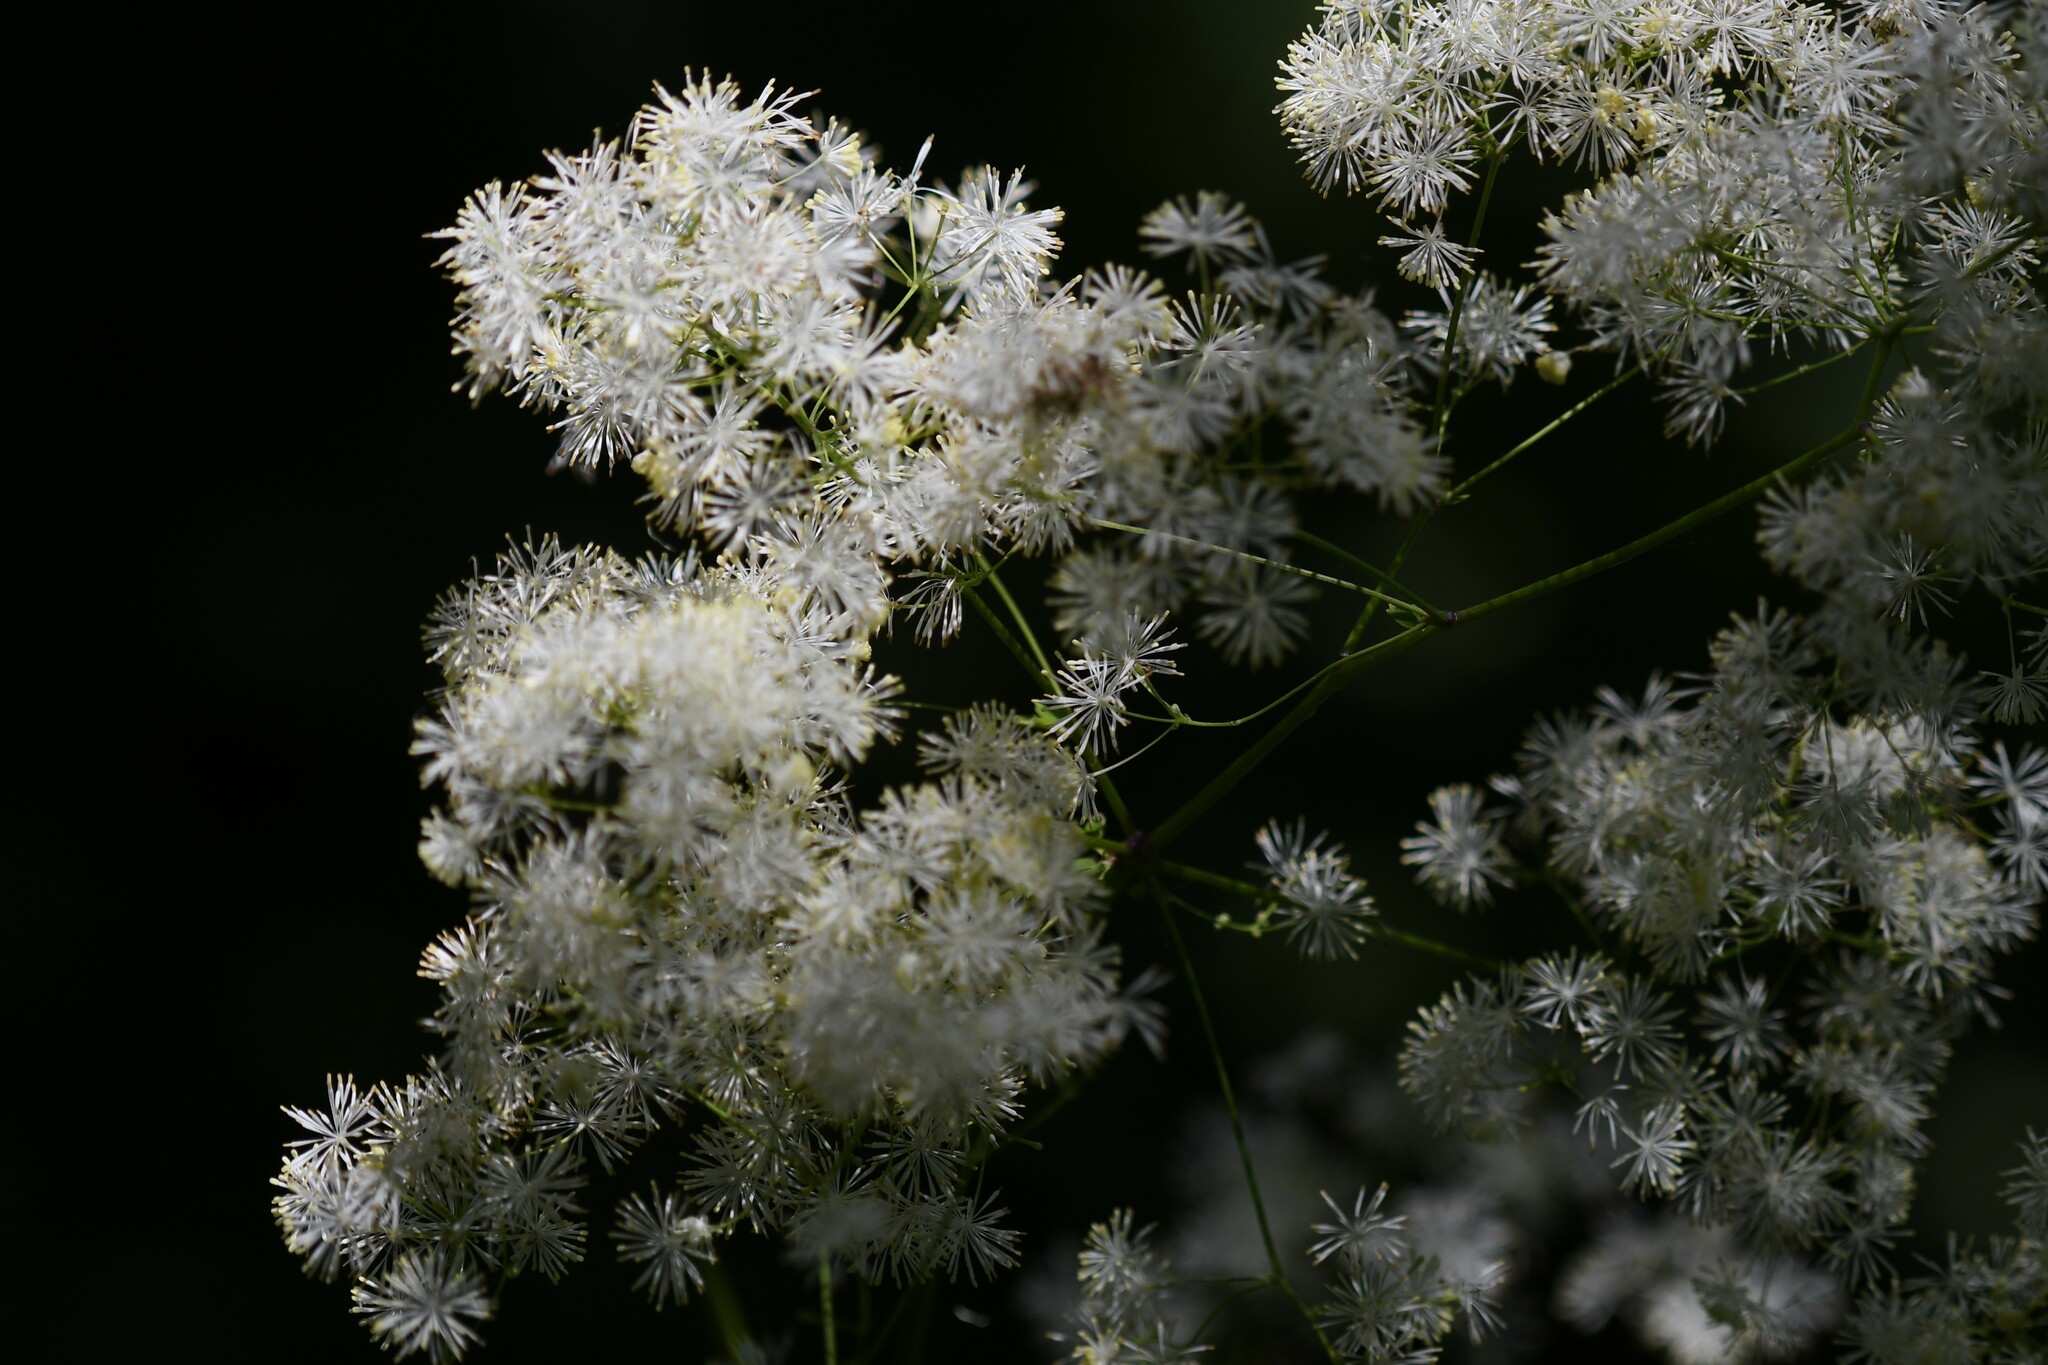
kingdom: Plantae
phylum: Tracheophyta
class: Magnoliopsida
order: Ranunculales
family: Ranunculaceae
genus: Thalictrum
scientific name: Thalictrum pubescens
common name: King-of-the-meadow
